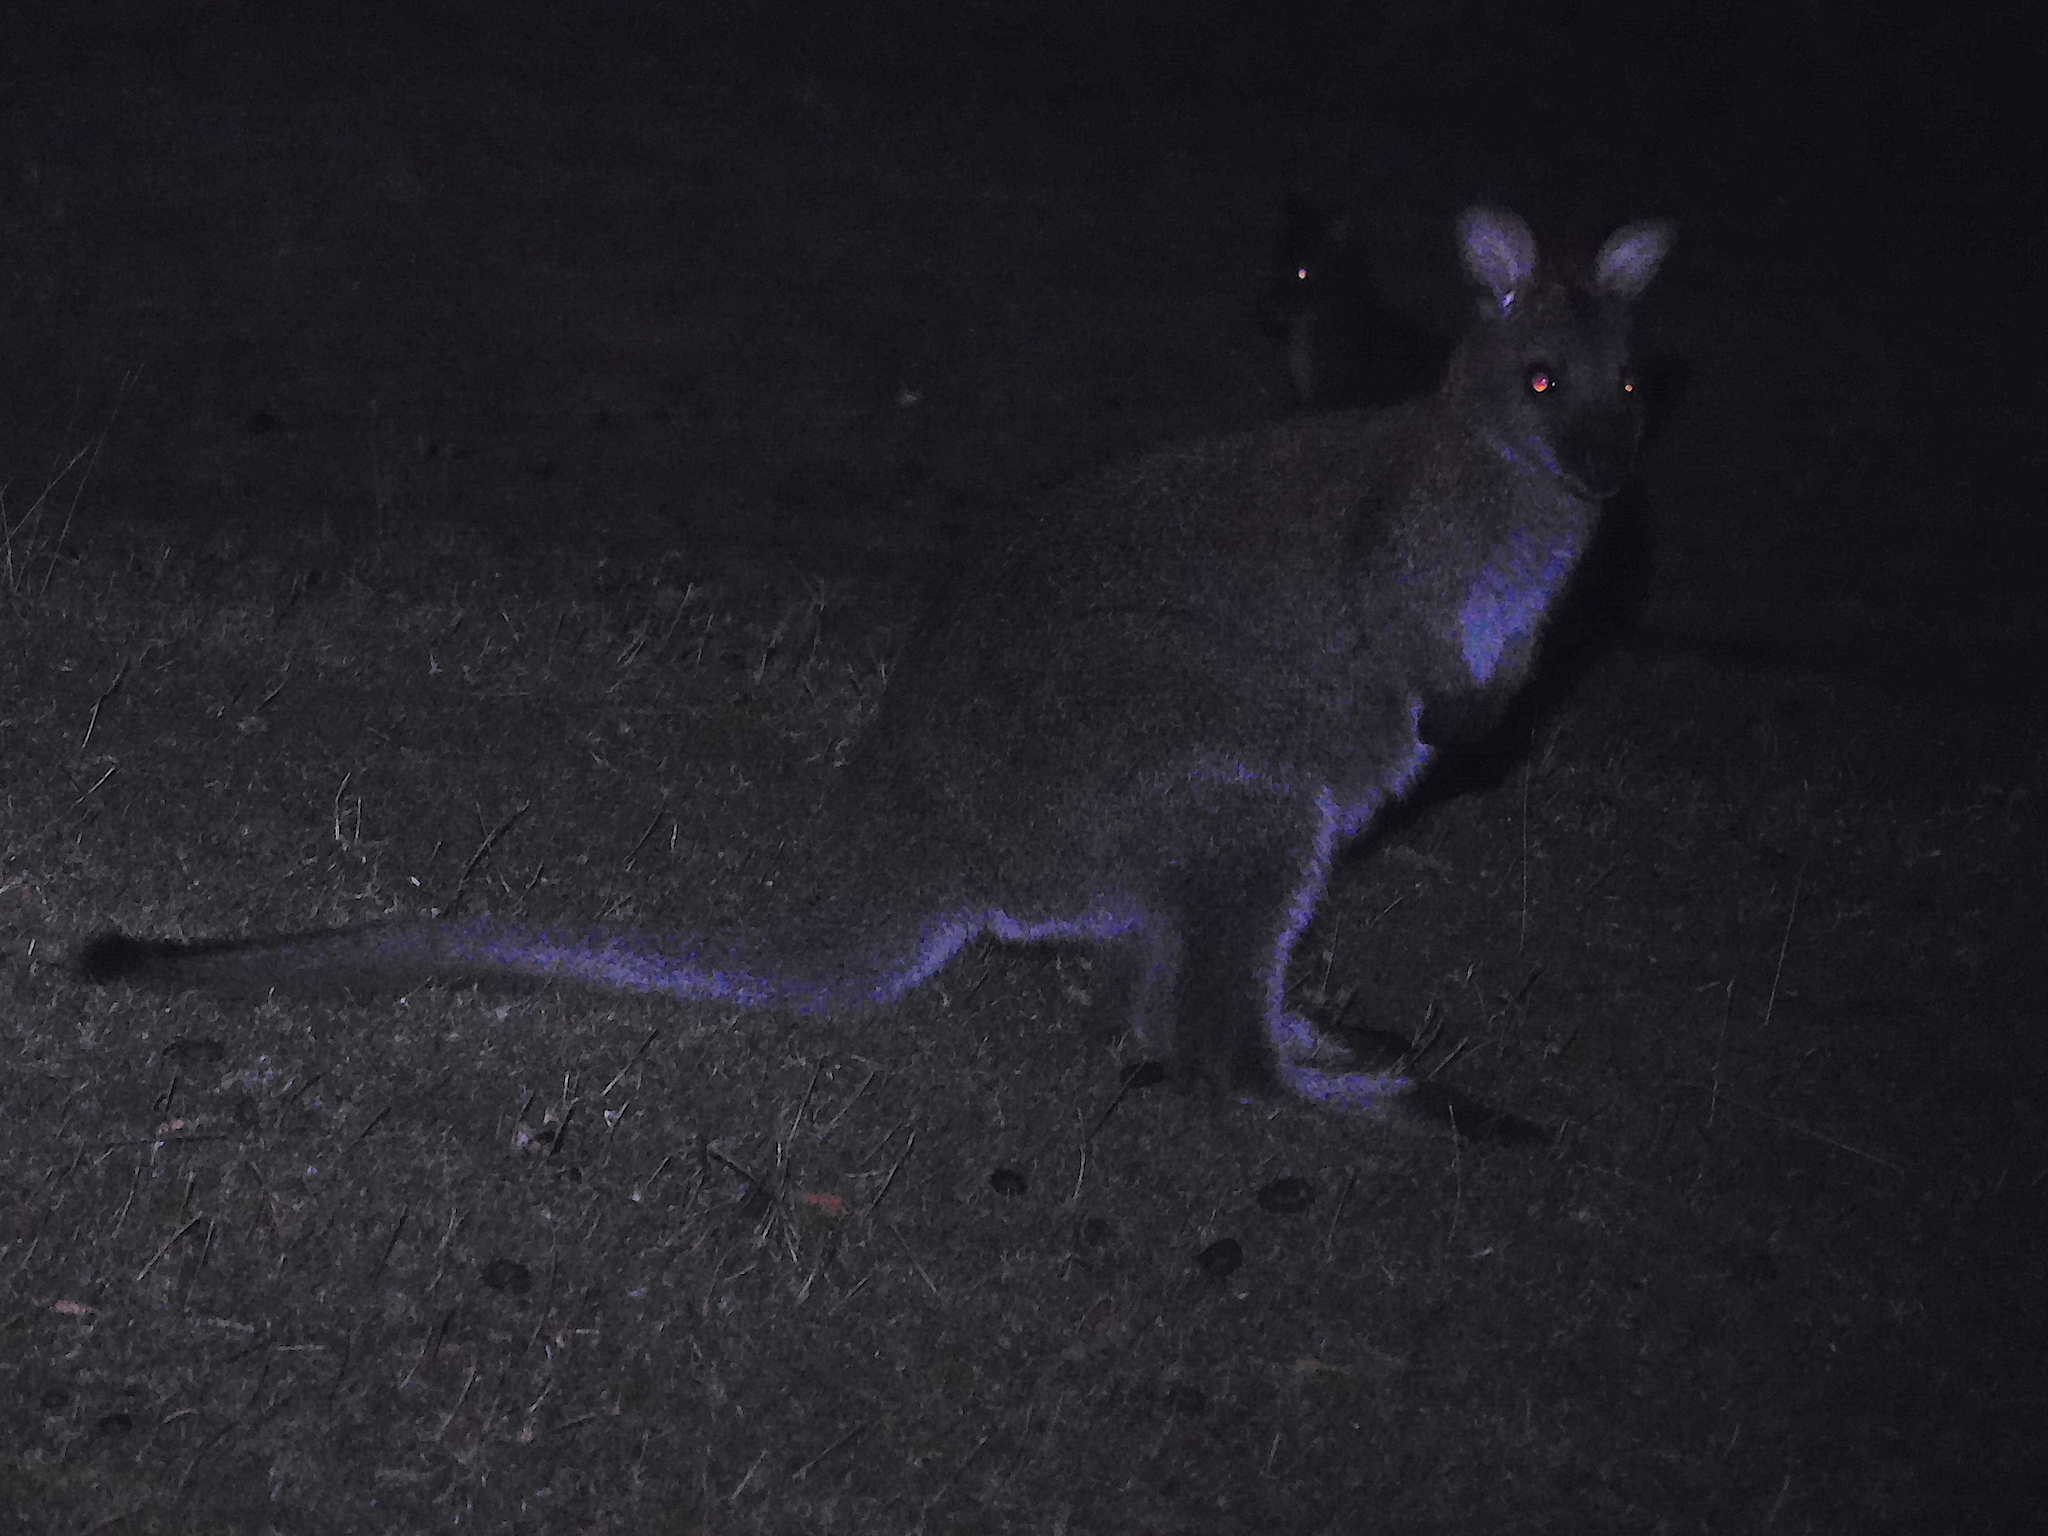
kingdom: Animalia
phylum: Chordata
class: Mammalia
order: Diprotodontia
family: Macropodidae
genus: Notamacropus
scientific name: Notamacropus rufogriseus
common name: Red-necked wallaby
